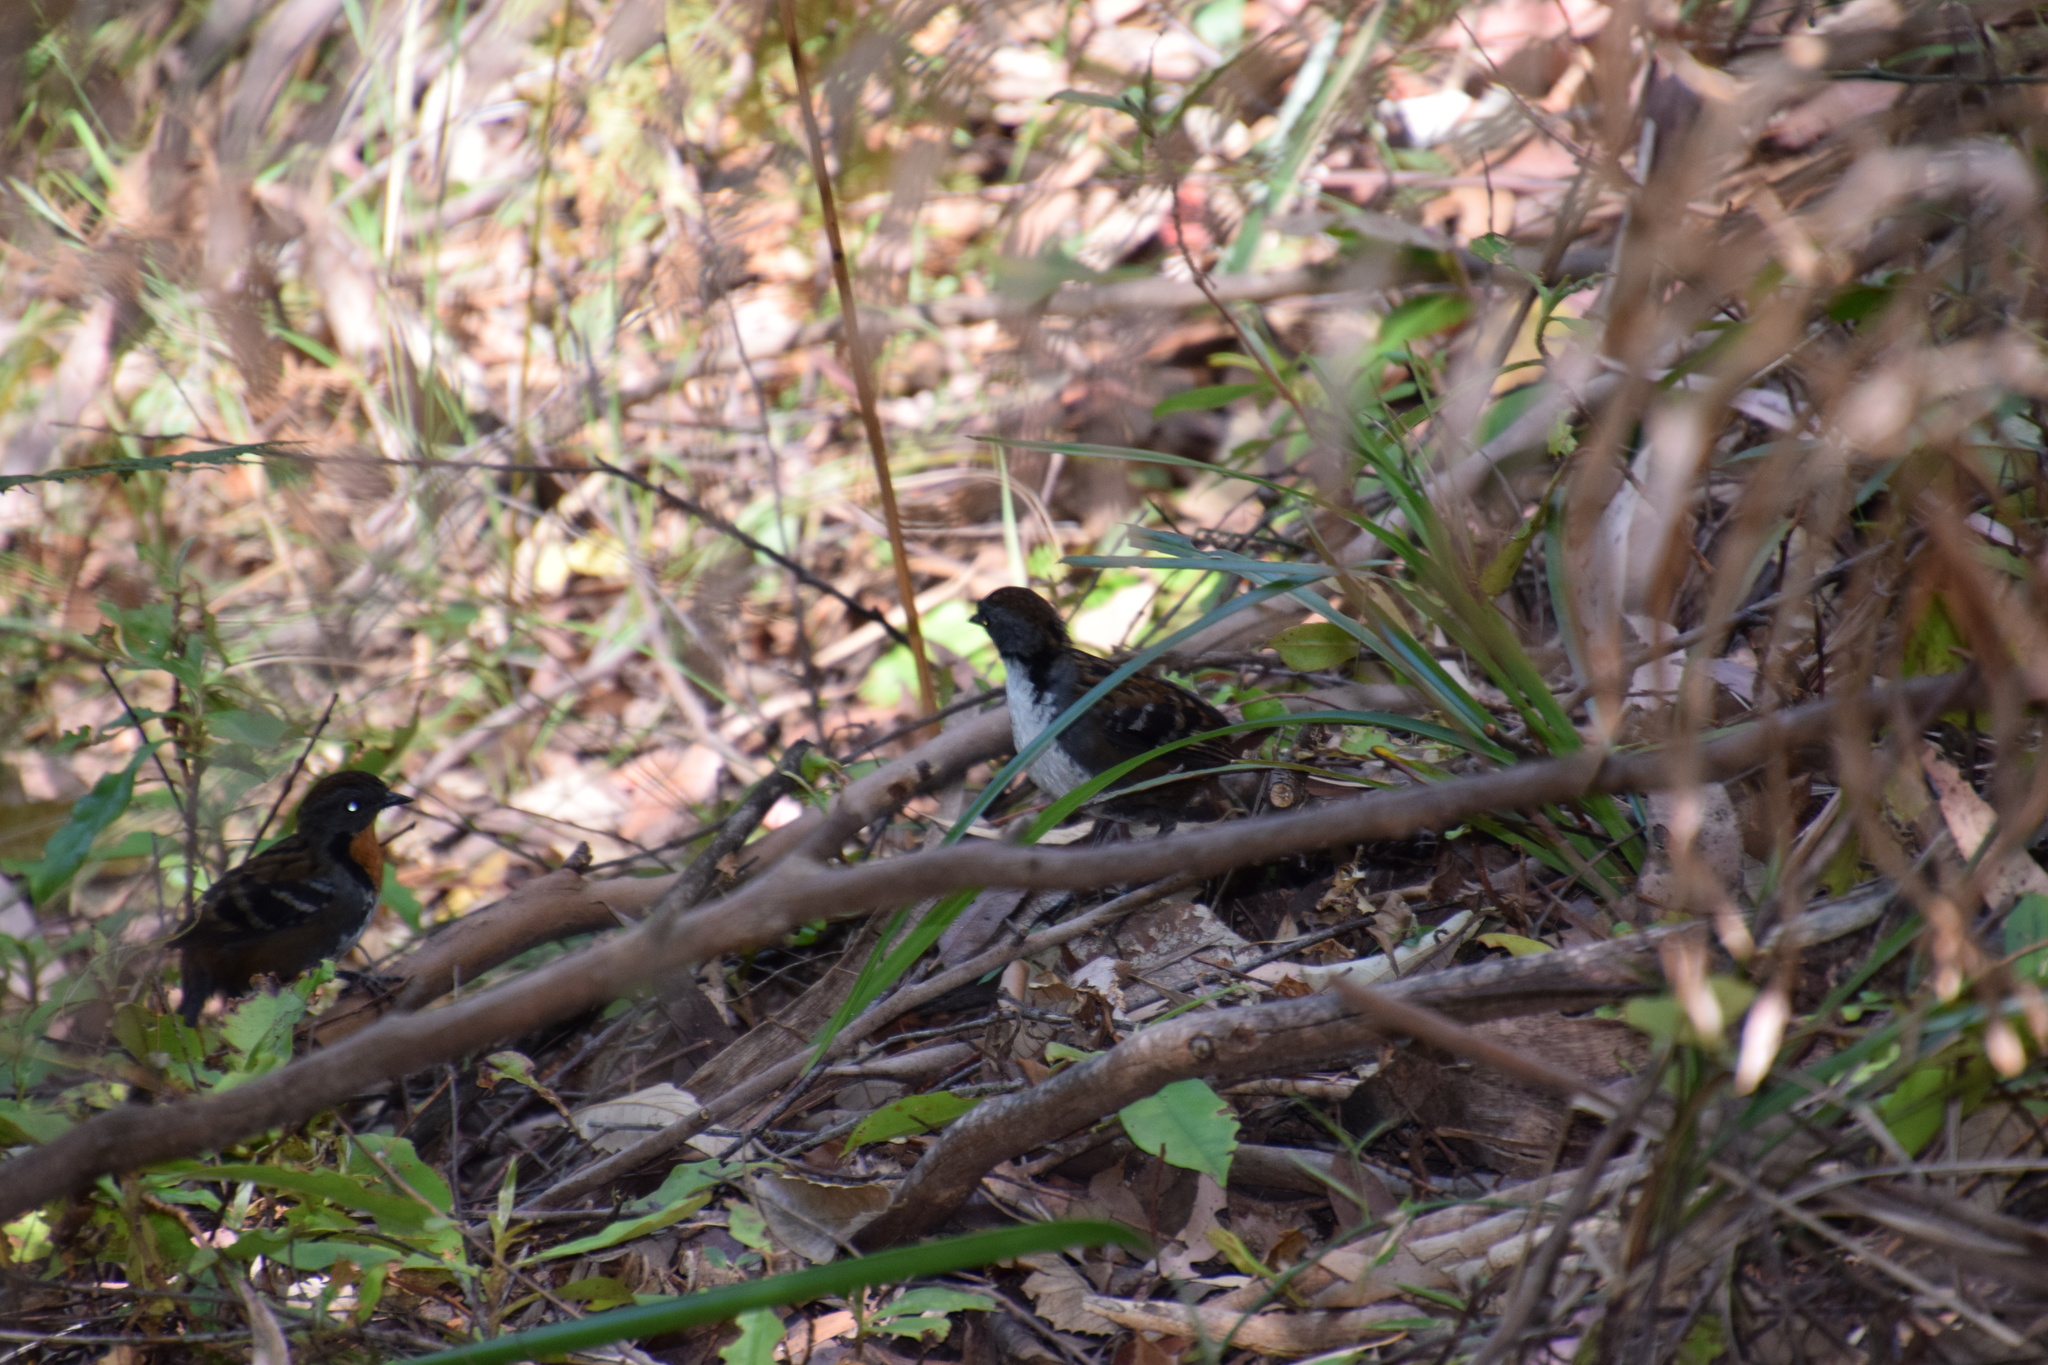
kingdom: Animalia
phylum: Chordata
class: Aves
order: Passeriformes
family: Orthonychidae
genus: Orthonyx
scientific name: Orthonyx temminckii
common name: Australian logrunner
